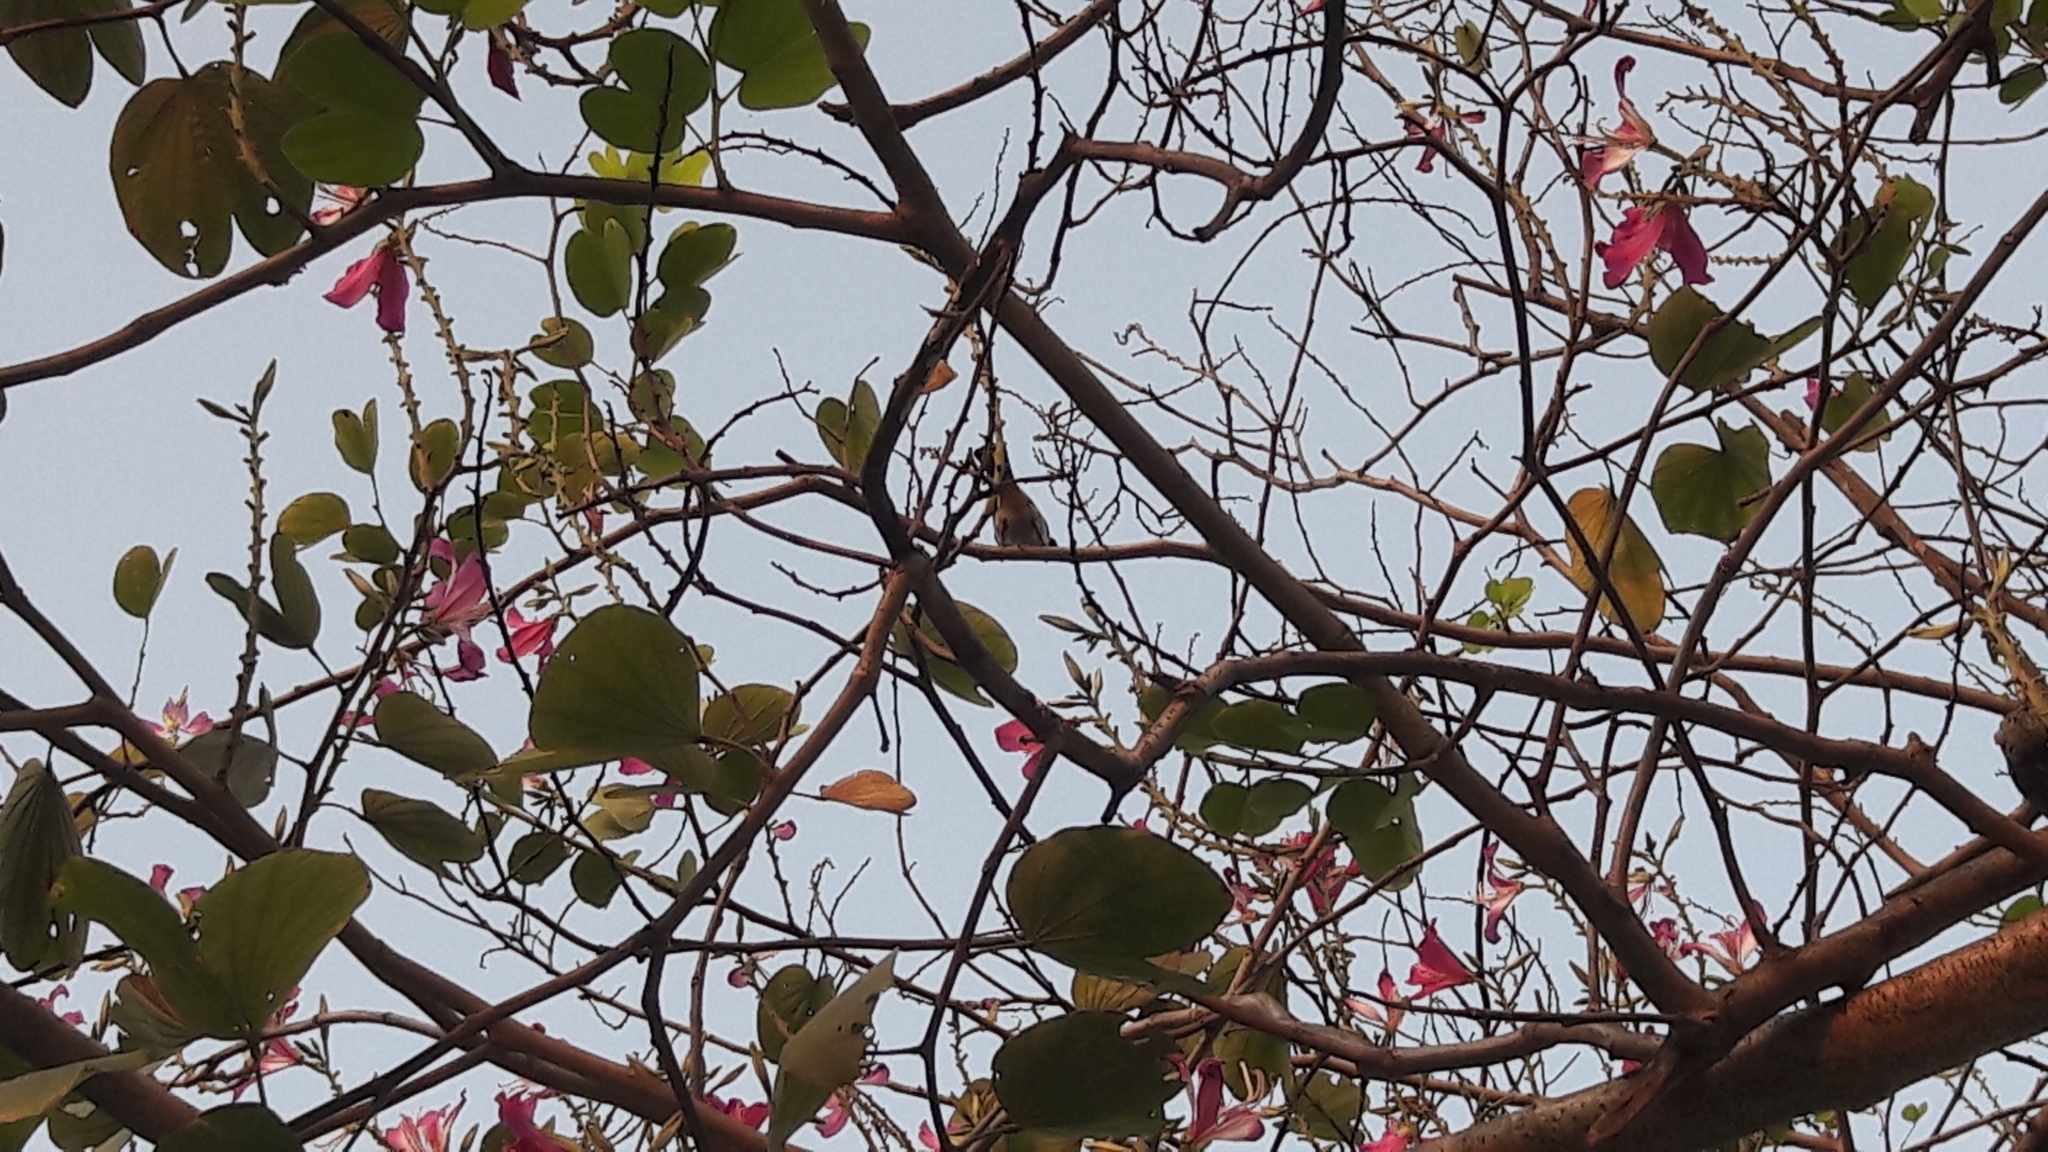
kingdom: Animalia
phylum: Chordata
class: Aves
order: Passeriformes
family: Pycnonotidae
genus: Pycnonotus
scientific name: Pycnonotus aurigaster
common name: Sooty-headed bulbul
